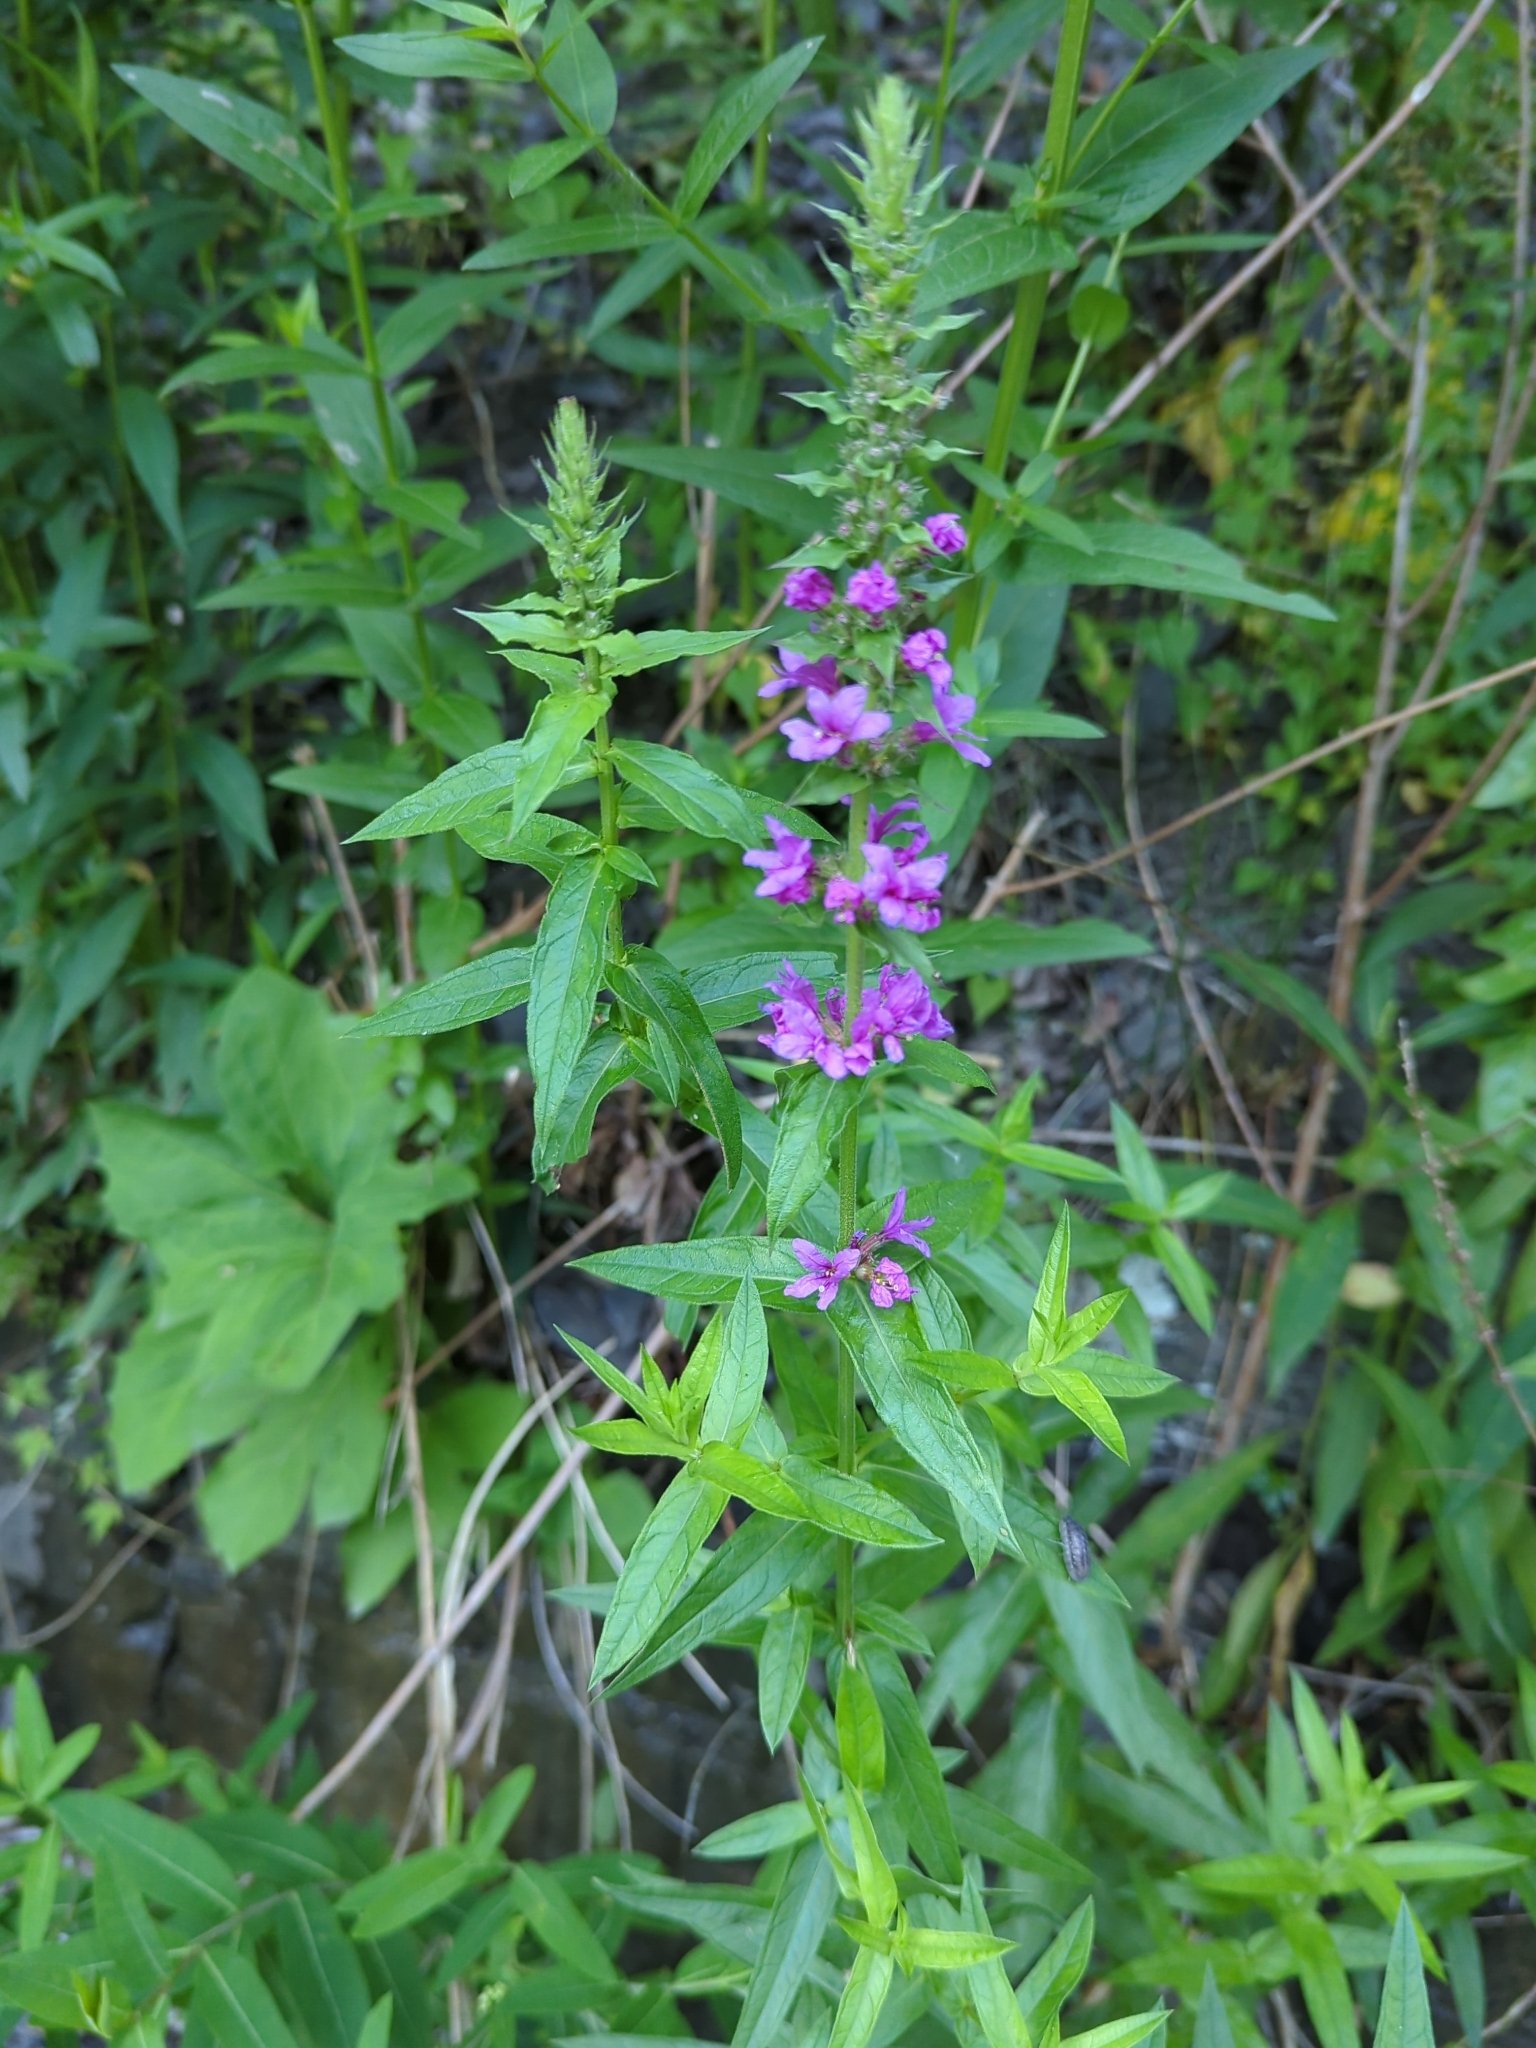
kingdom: Plantae
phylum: Tracheophyta
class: Magnoliopsida
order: Myrtales
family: Lythraceae
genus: Lythrum
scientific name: Lythrum salicaria
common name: Purple loosestrife
